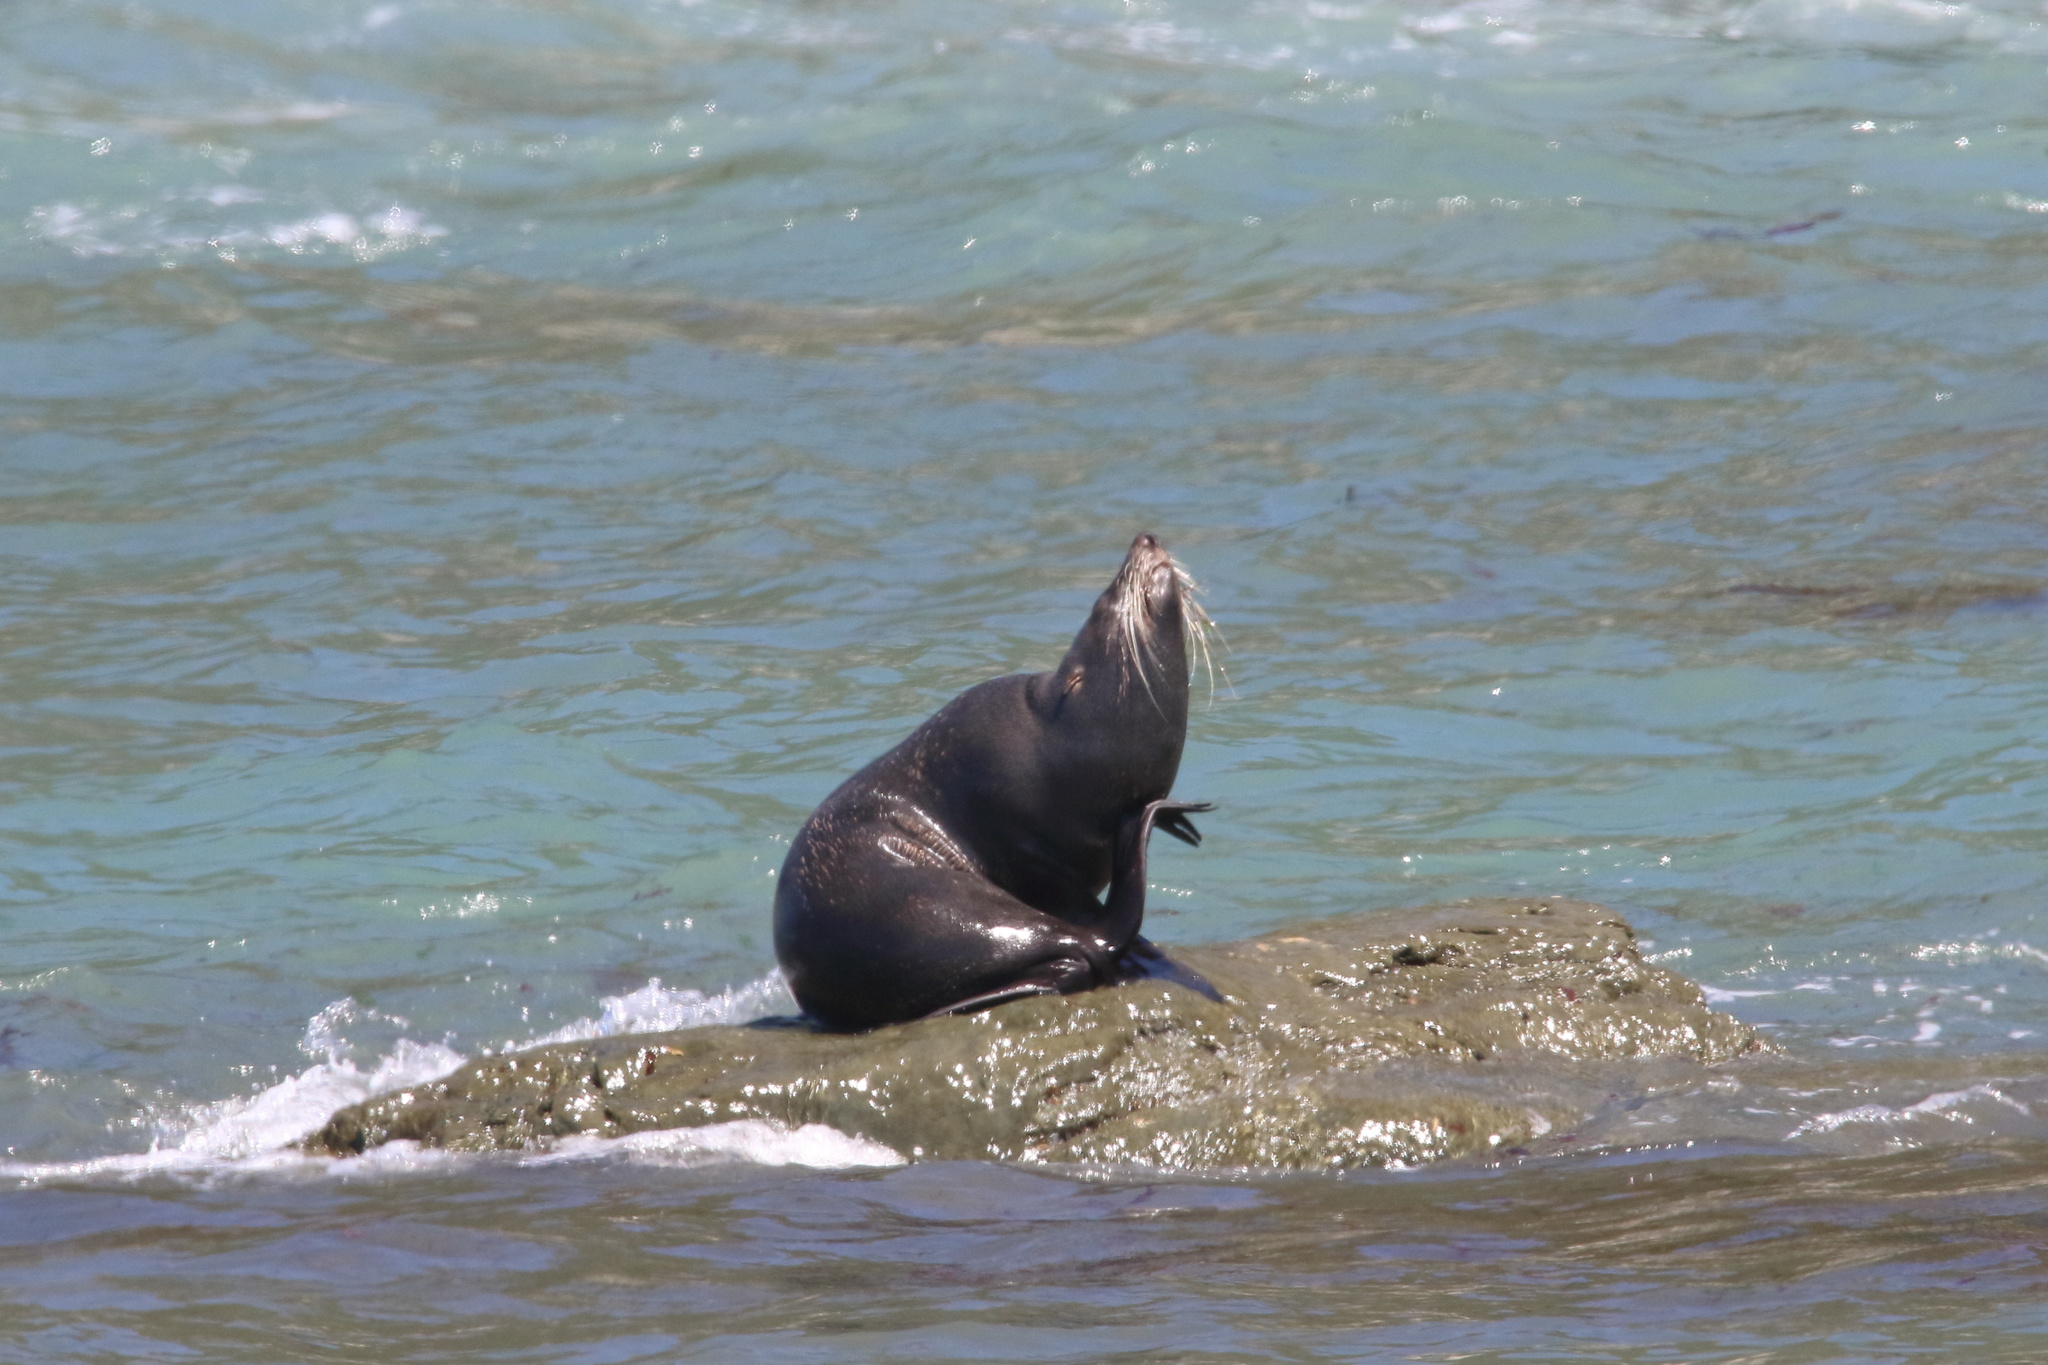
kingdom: Animalia
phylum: Chordata
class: Mammalia
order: Carnivora
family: Otariidae
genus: Arctocephalus
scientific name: Arctocephalus forsteri
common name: New zealand fur seal
